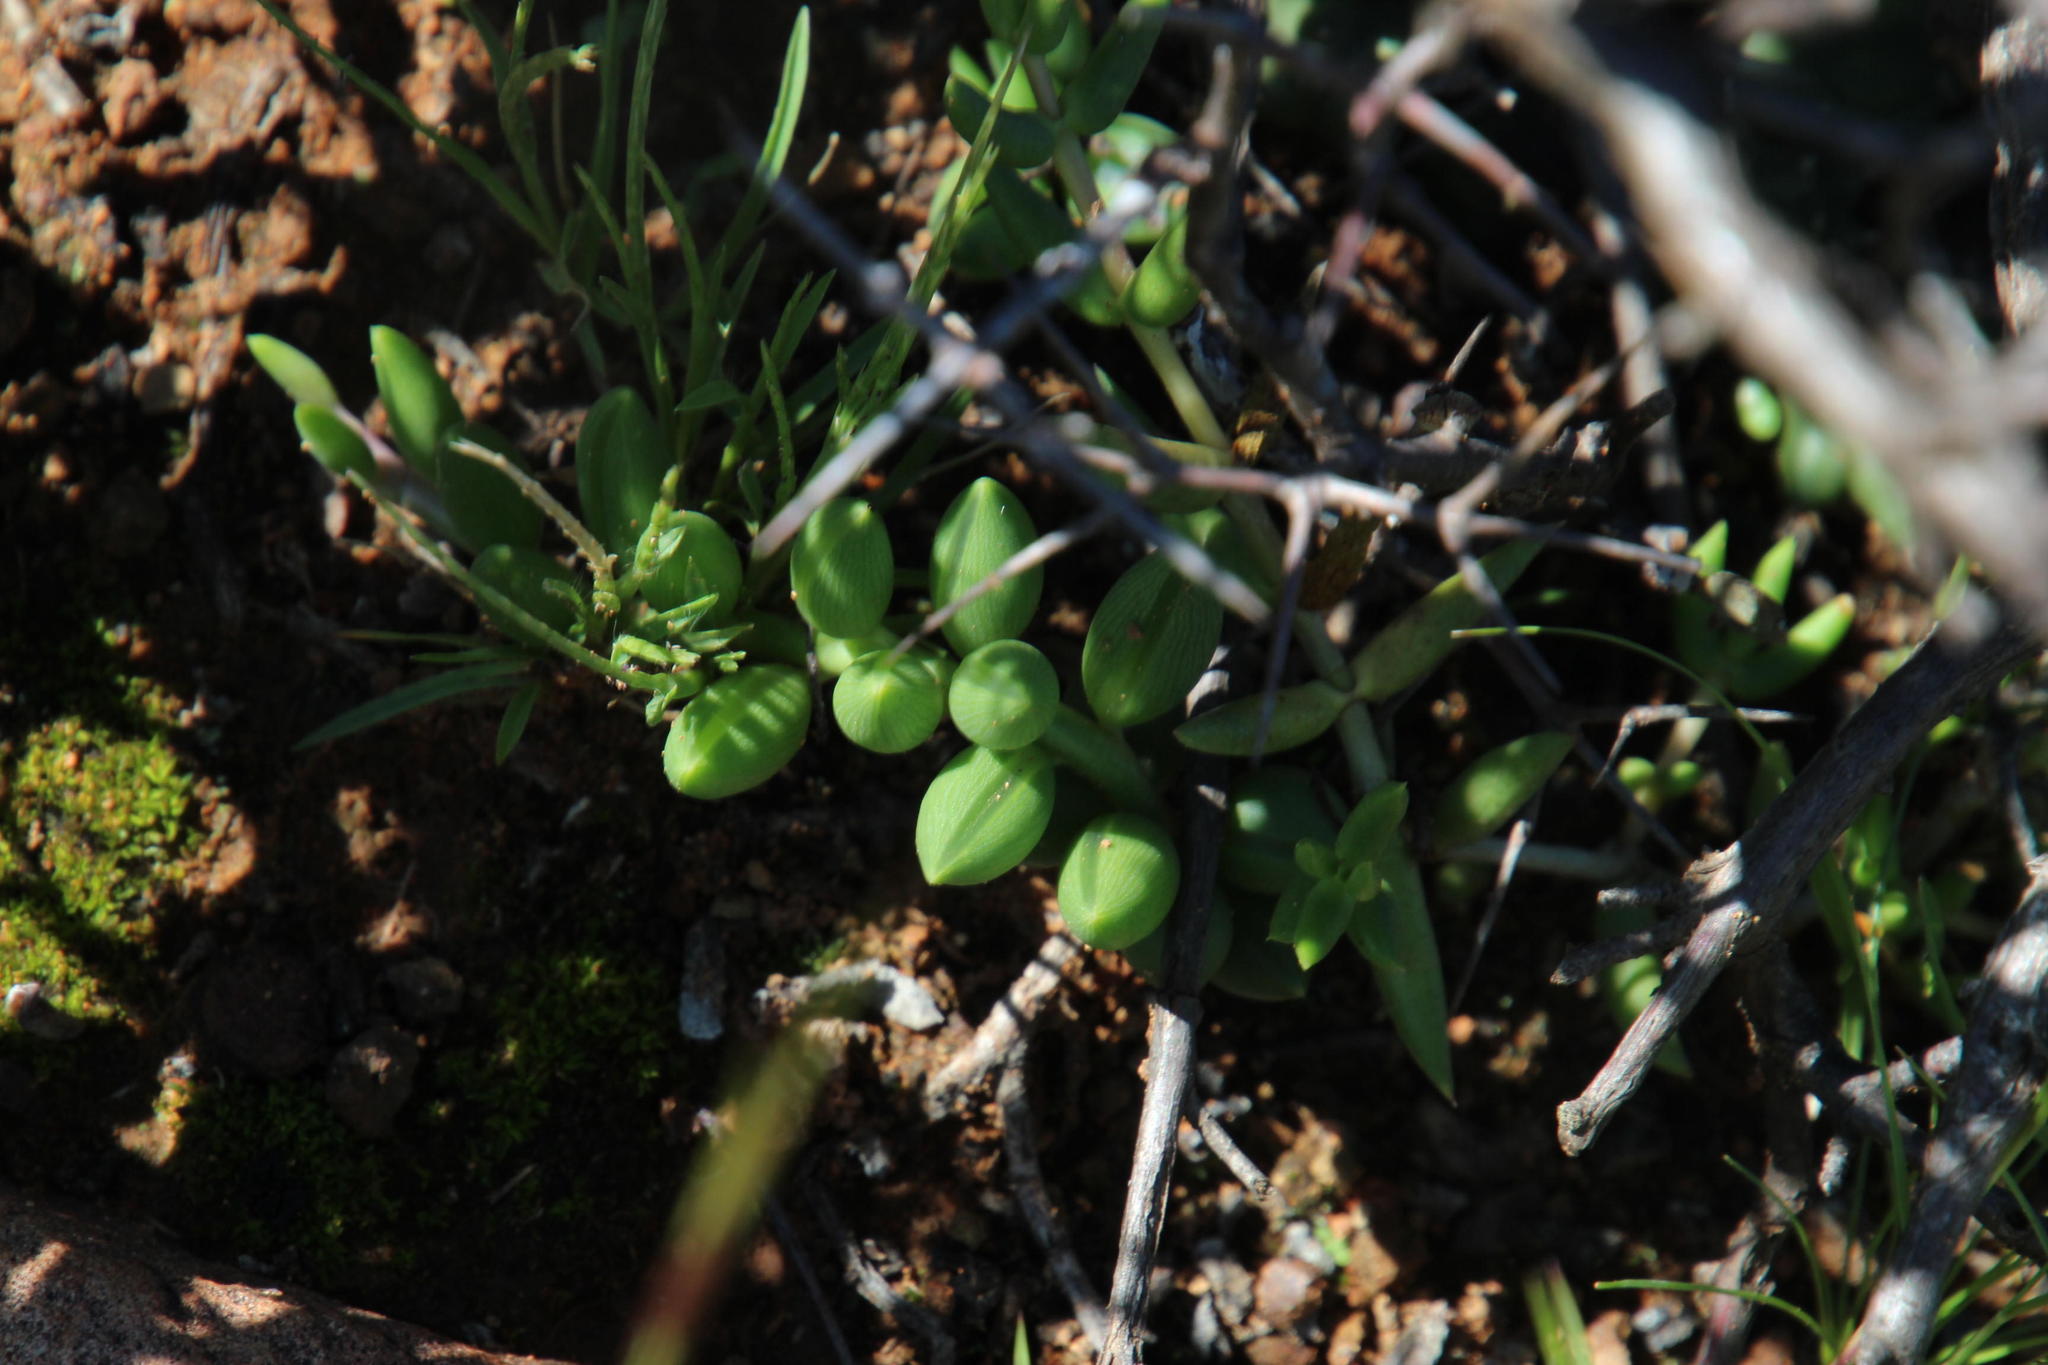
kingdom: Plantae
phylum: Tracheophyta
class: Magnoliopsida
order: Asterales
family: Asteraceae
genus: Curio
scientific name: Curio radicans
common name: Creeping-berry
